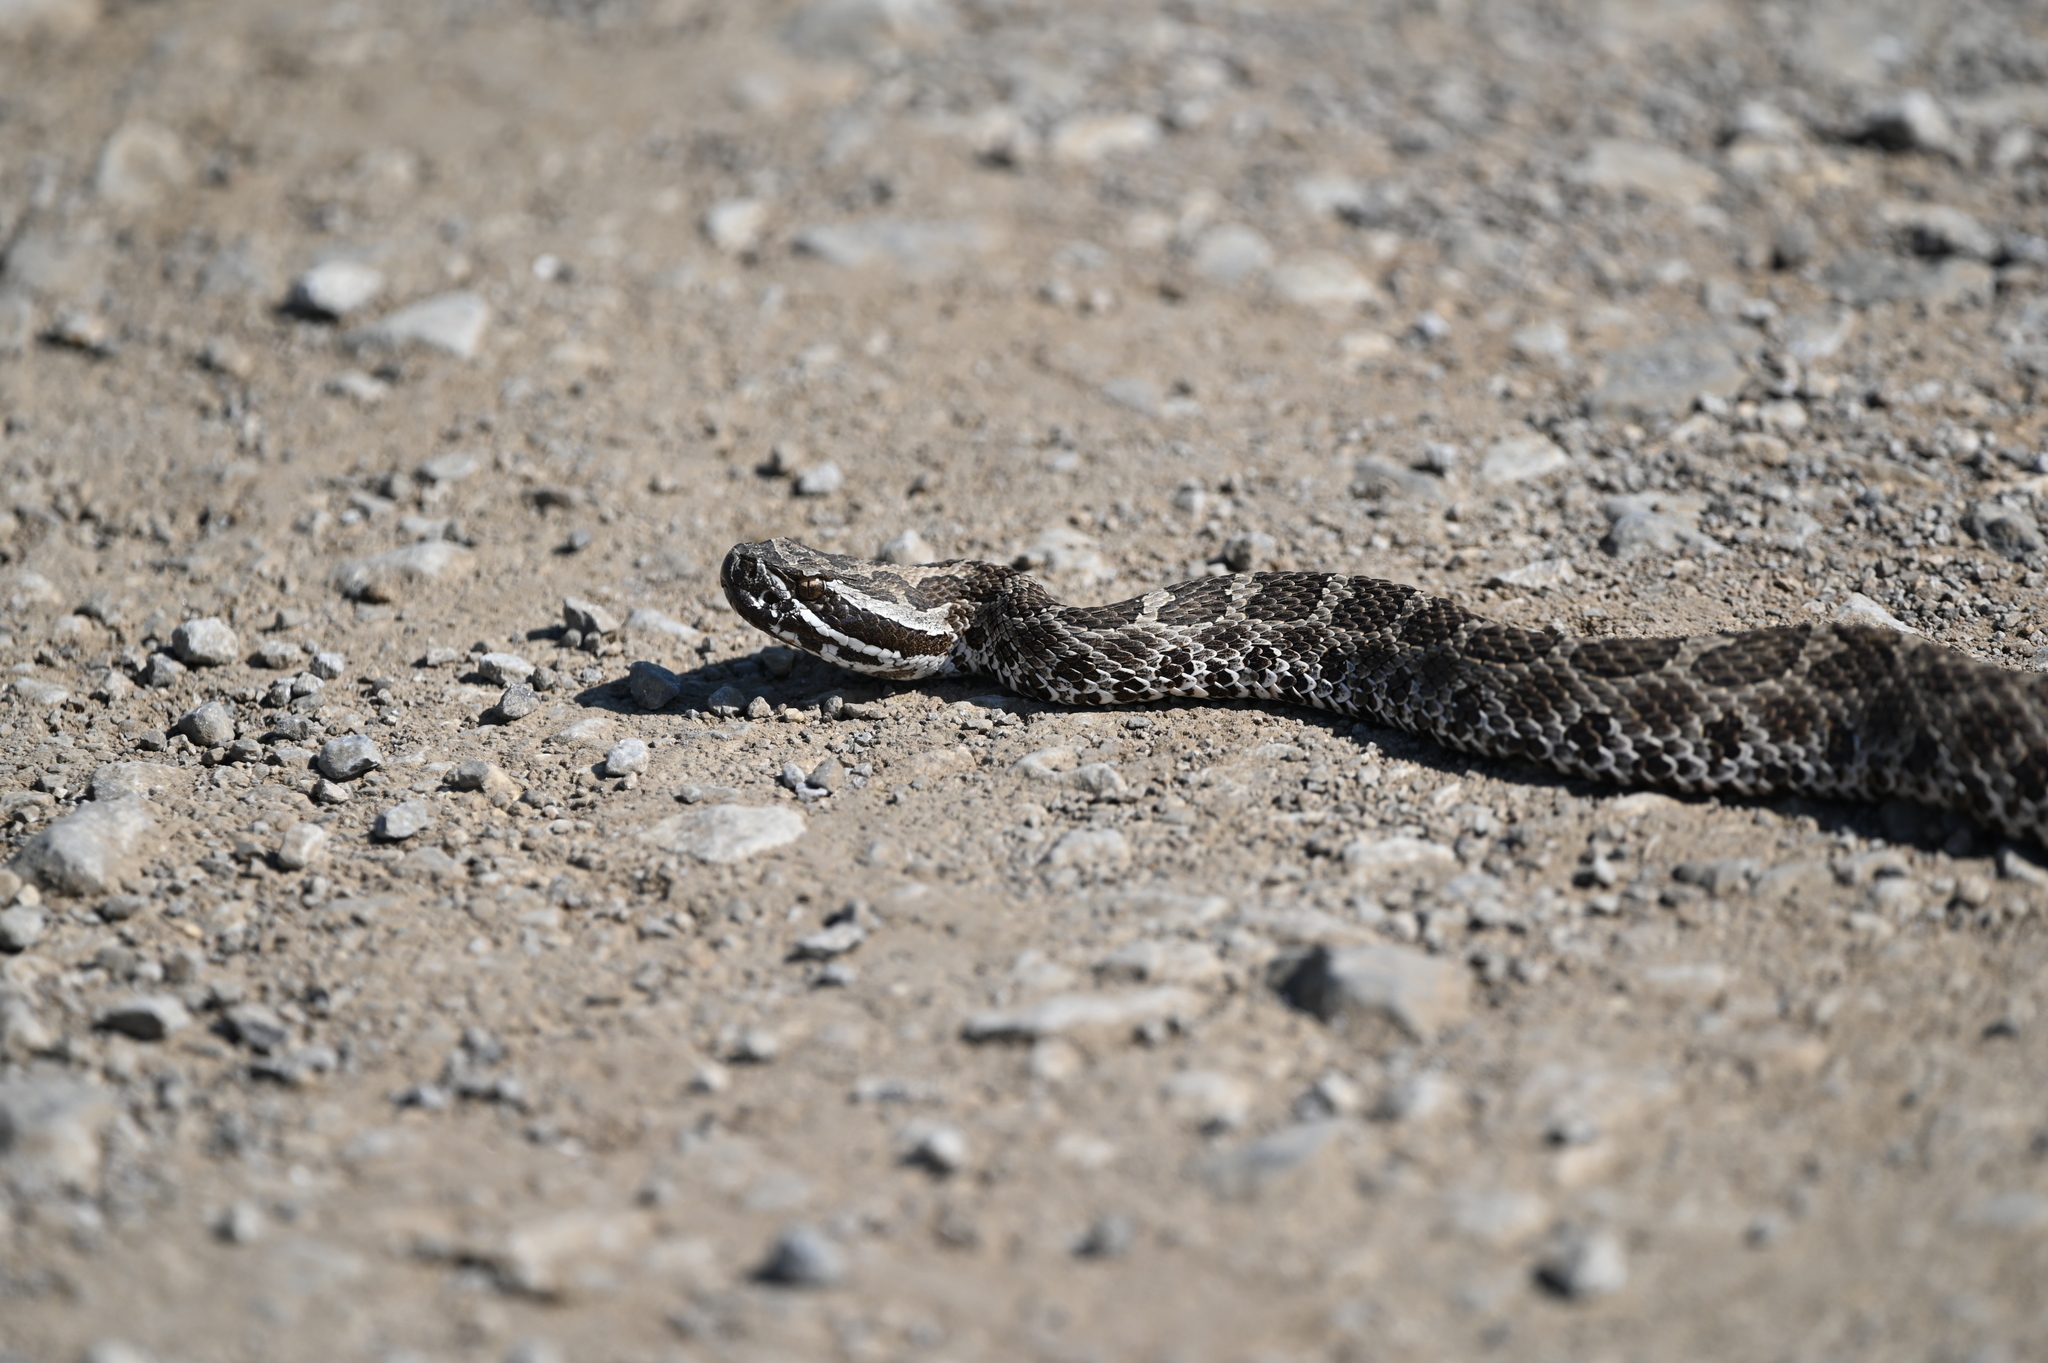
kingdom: Animalia
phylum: Chordata
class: Squamata
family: Viperidae
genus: Sistrurus
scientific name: Sistrurus tergeminus
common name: Desert massasauga [edwardsi]
